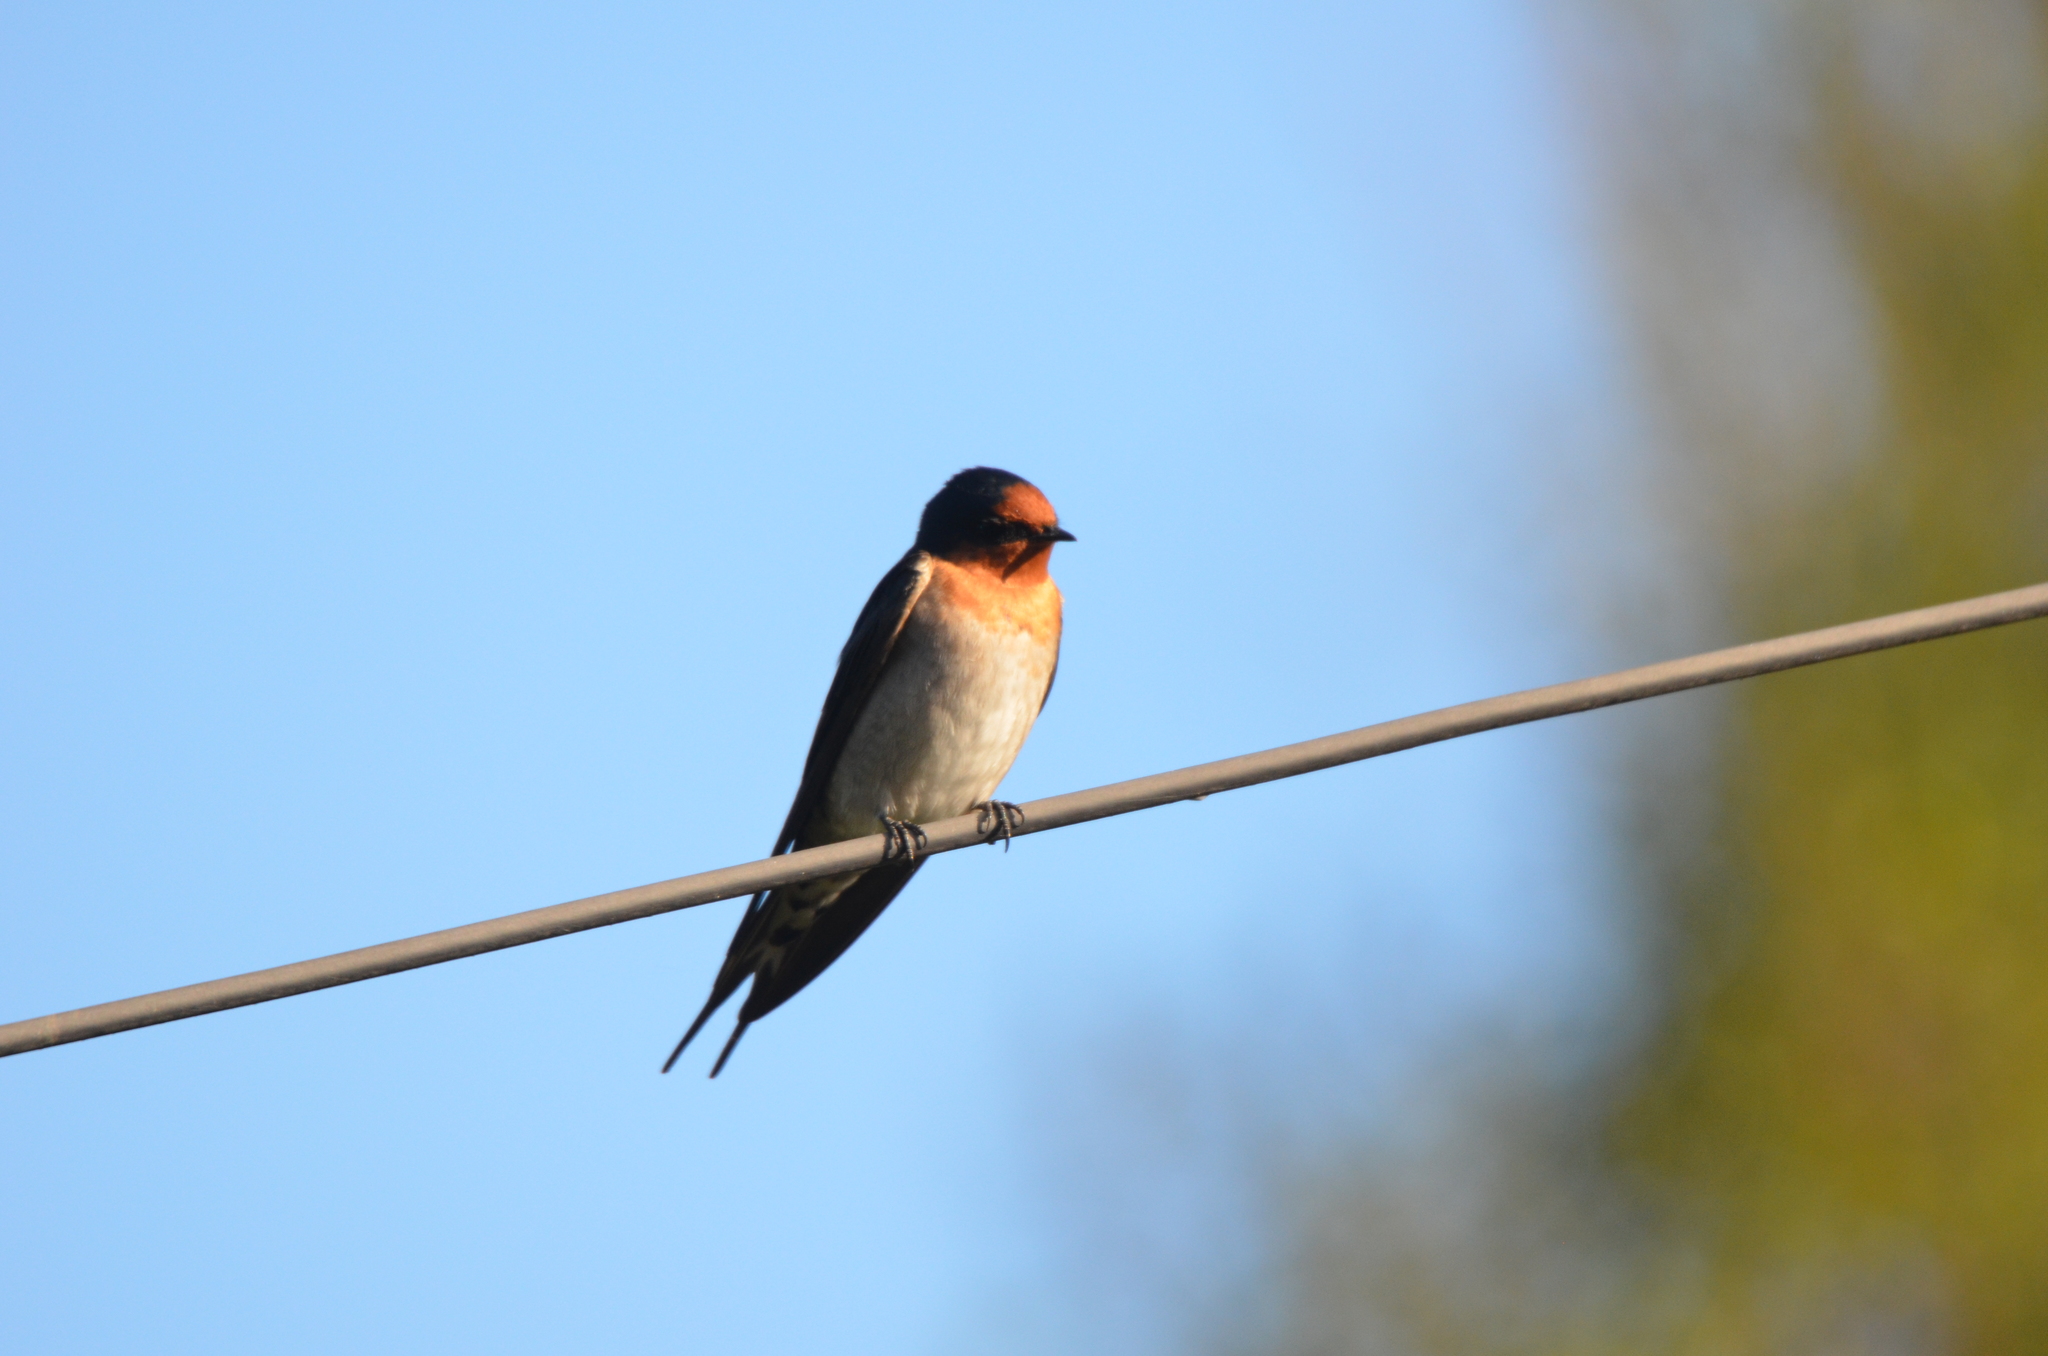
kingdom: Animalia
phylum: Chordata
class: Aves
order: Passeriformes
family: Hirundinidae
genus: Hirundo
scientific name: Hirundo neoxena
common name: Welcome swallow
